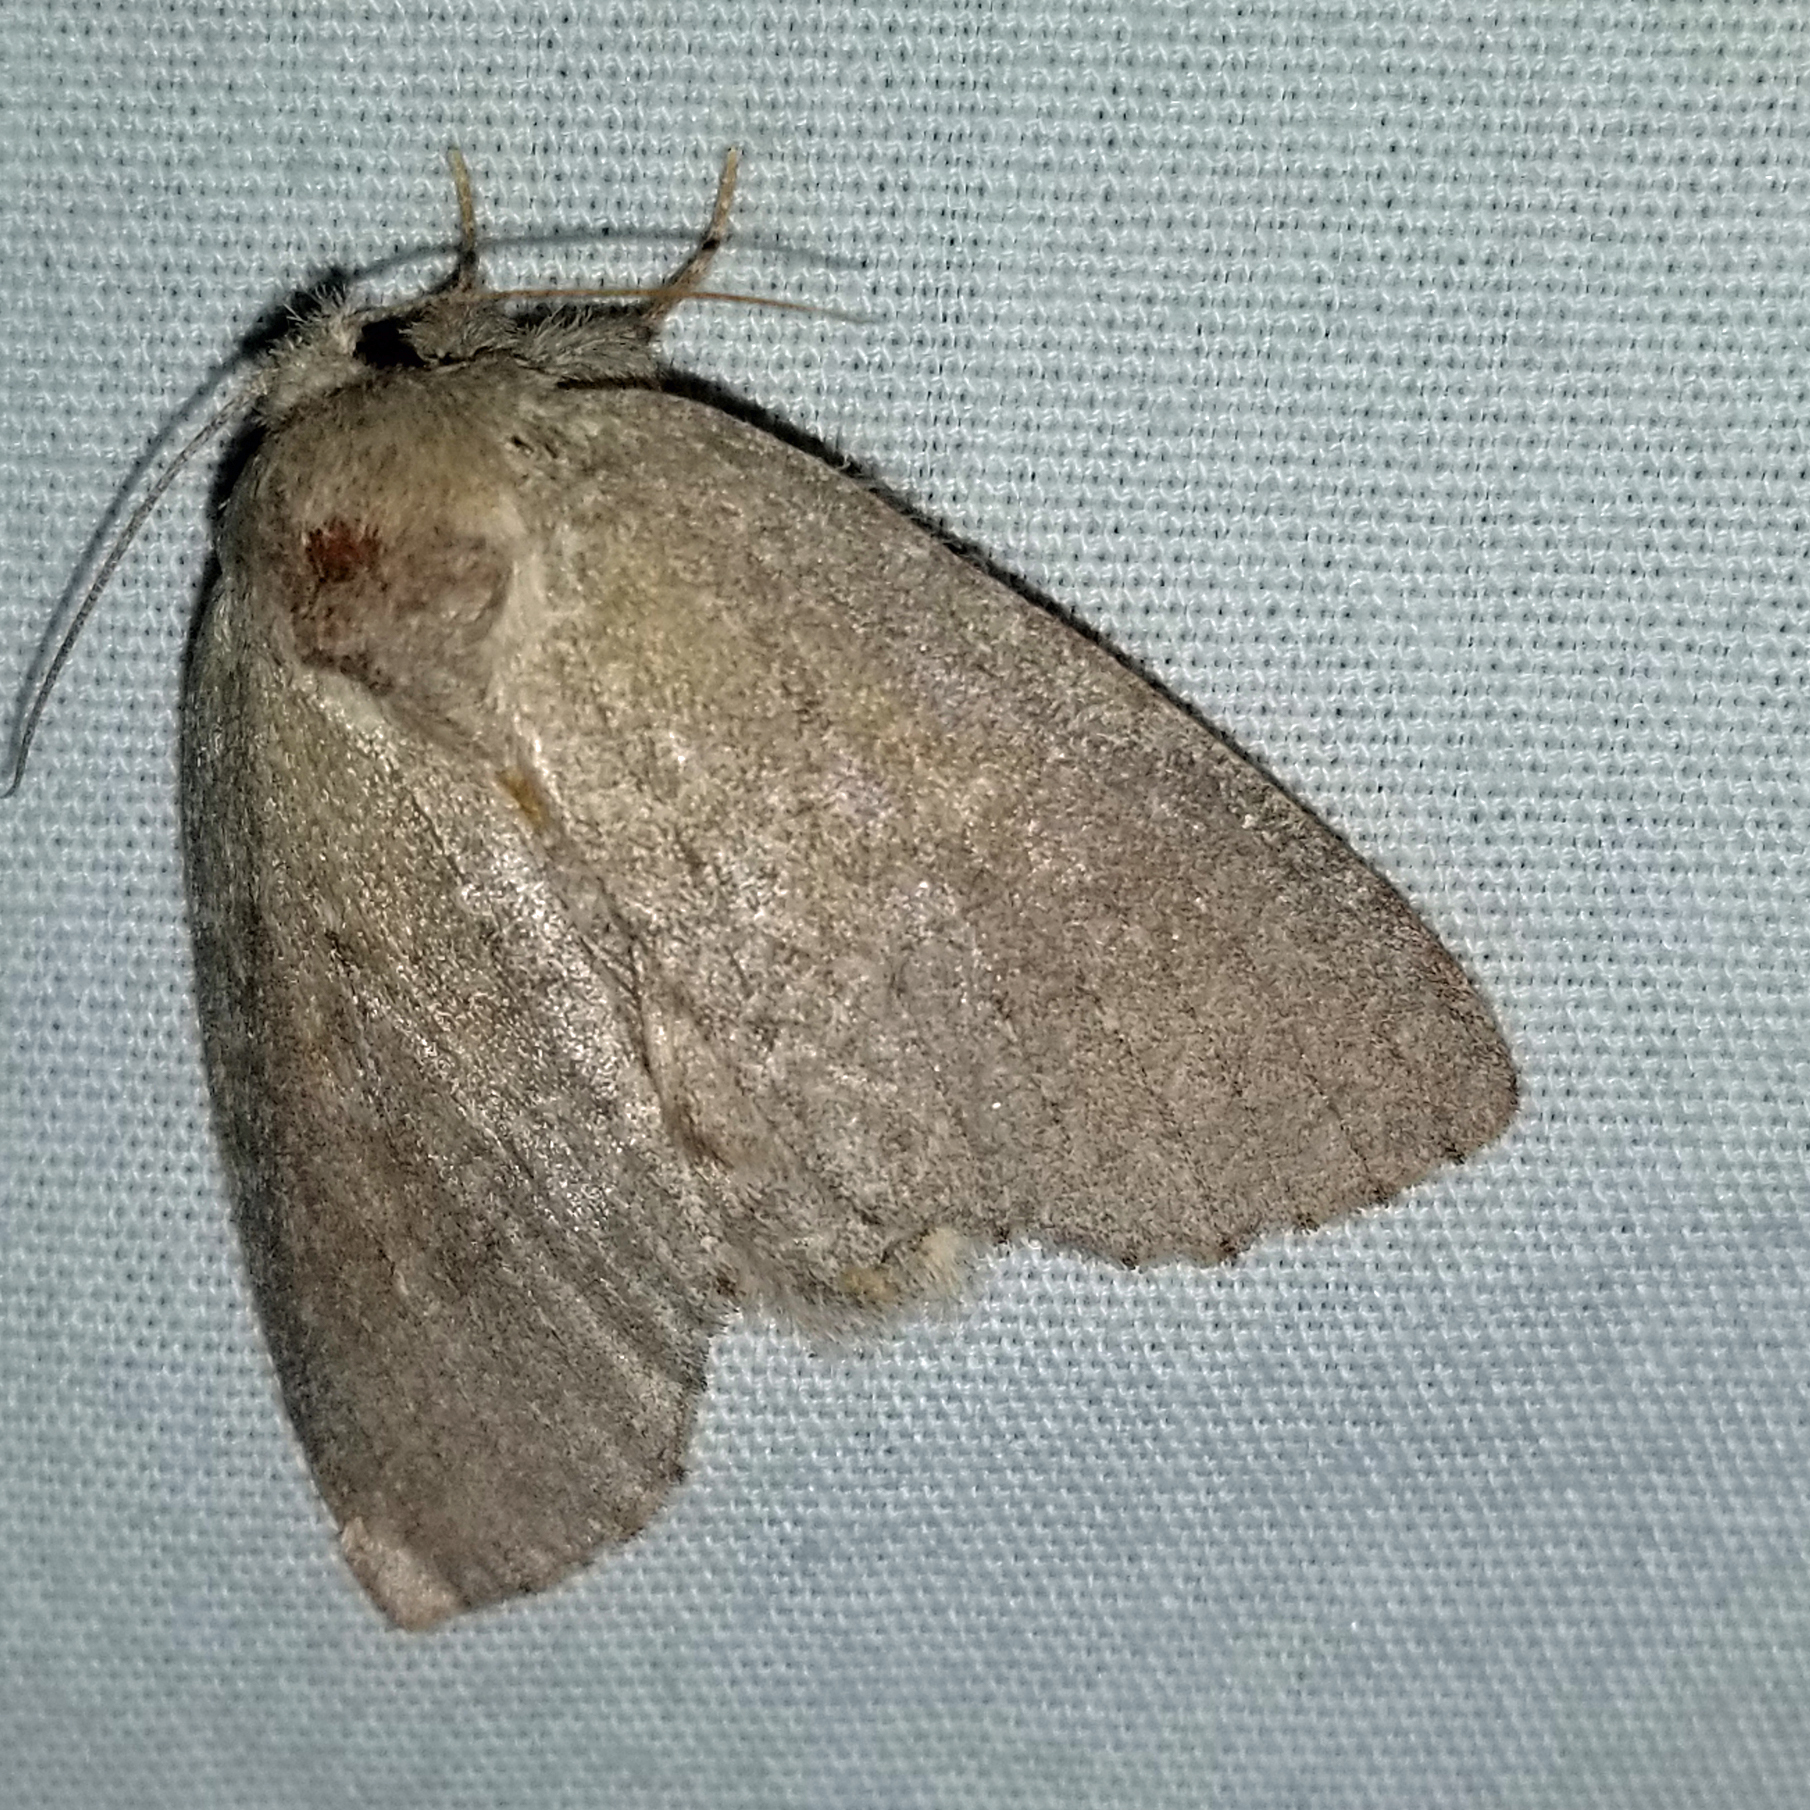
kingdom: Animalia
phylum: Arthropoda
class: Insecta
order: Lepidoptera
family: Notodontidae
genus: Misogada
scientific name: Misogada unicolor
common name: Drab prominent
